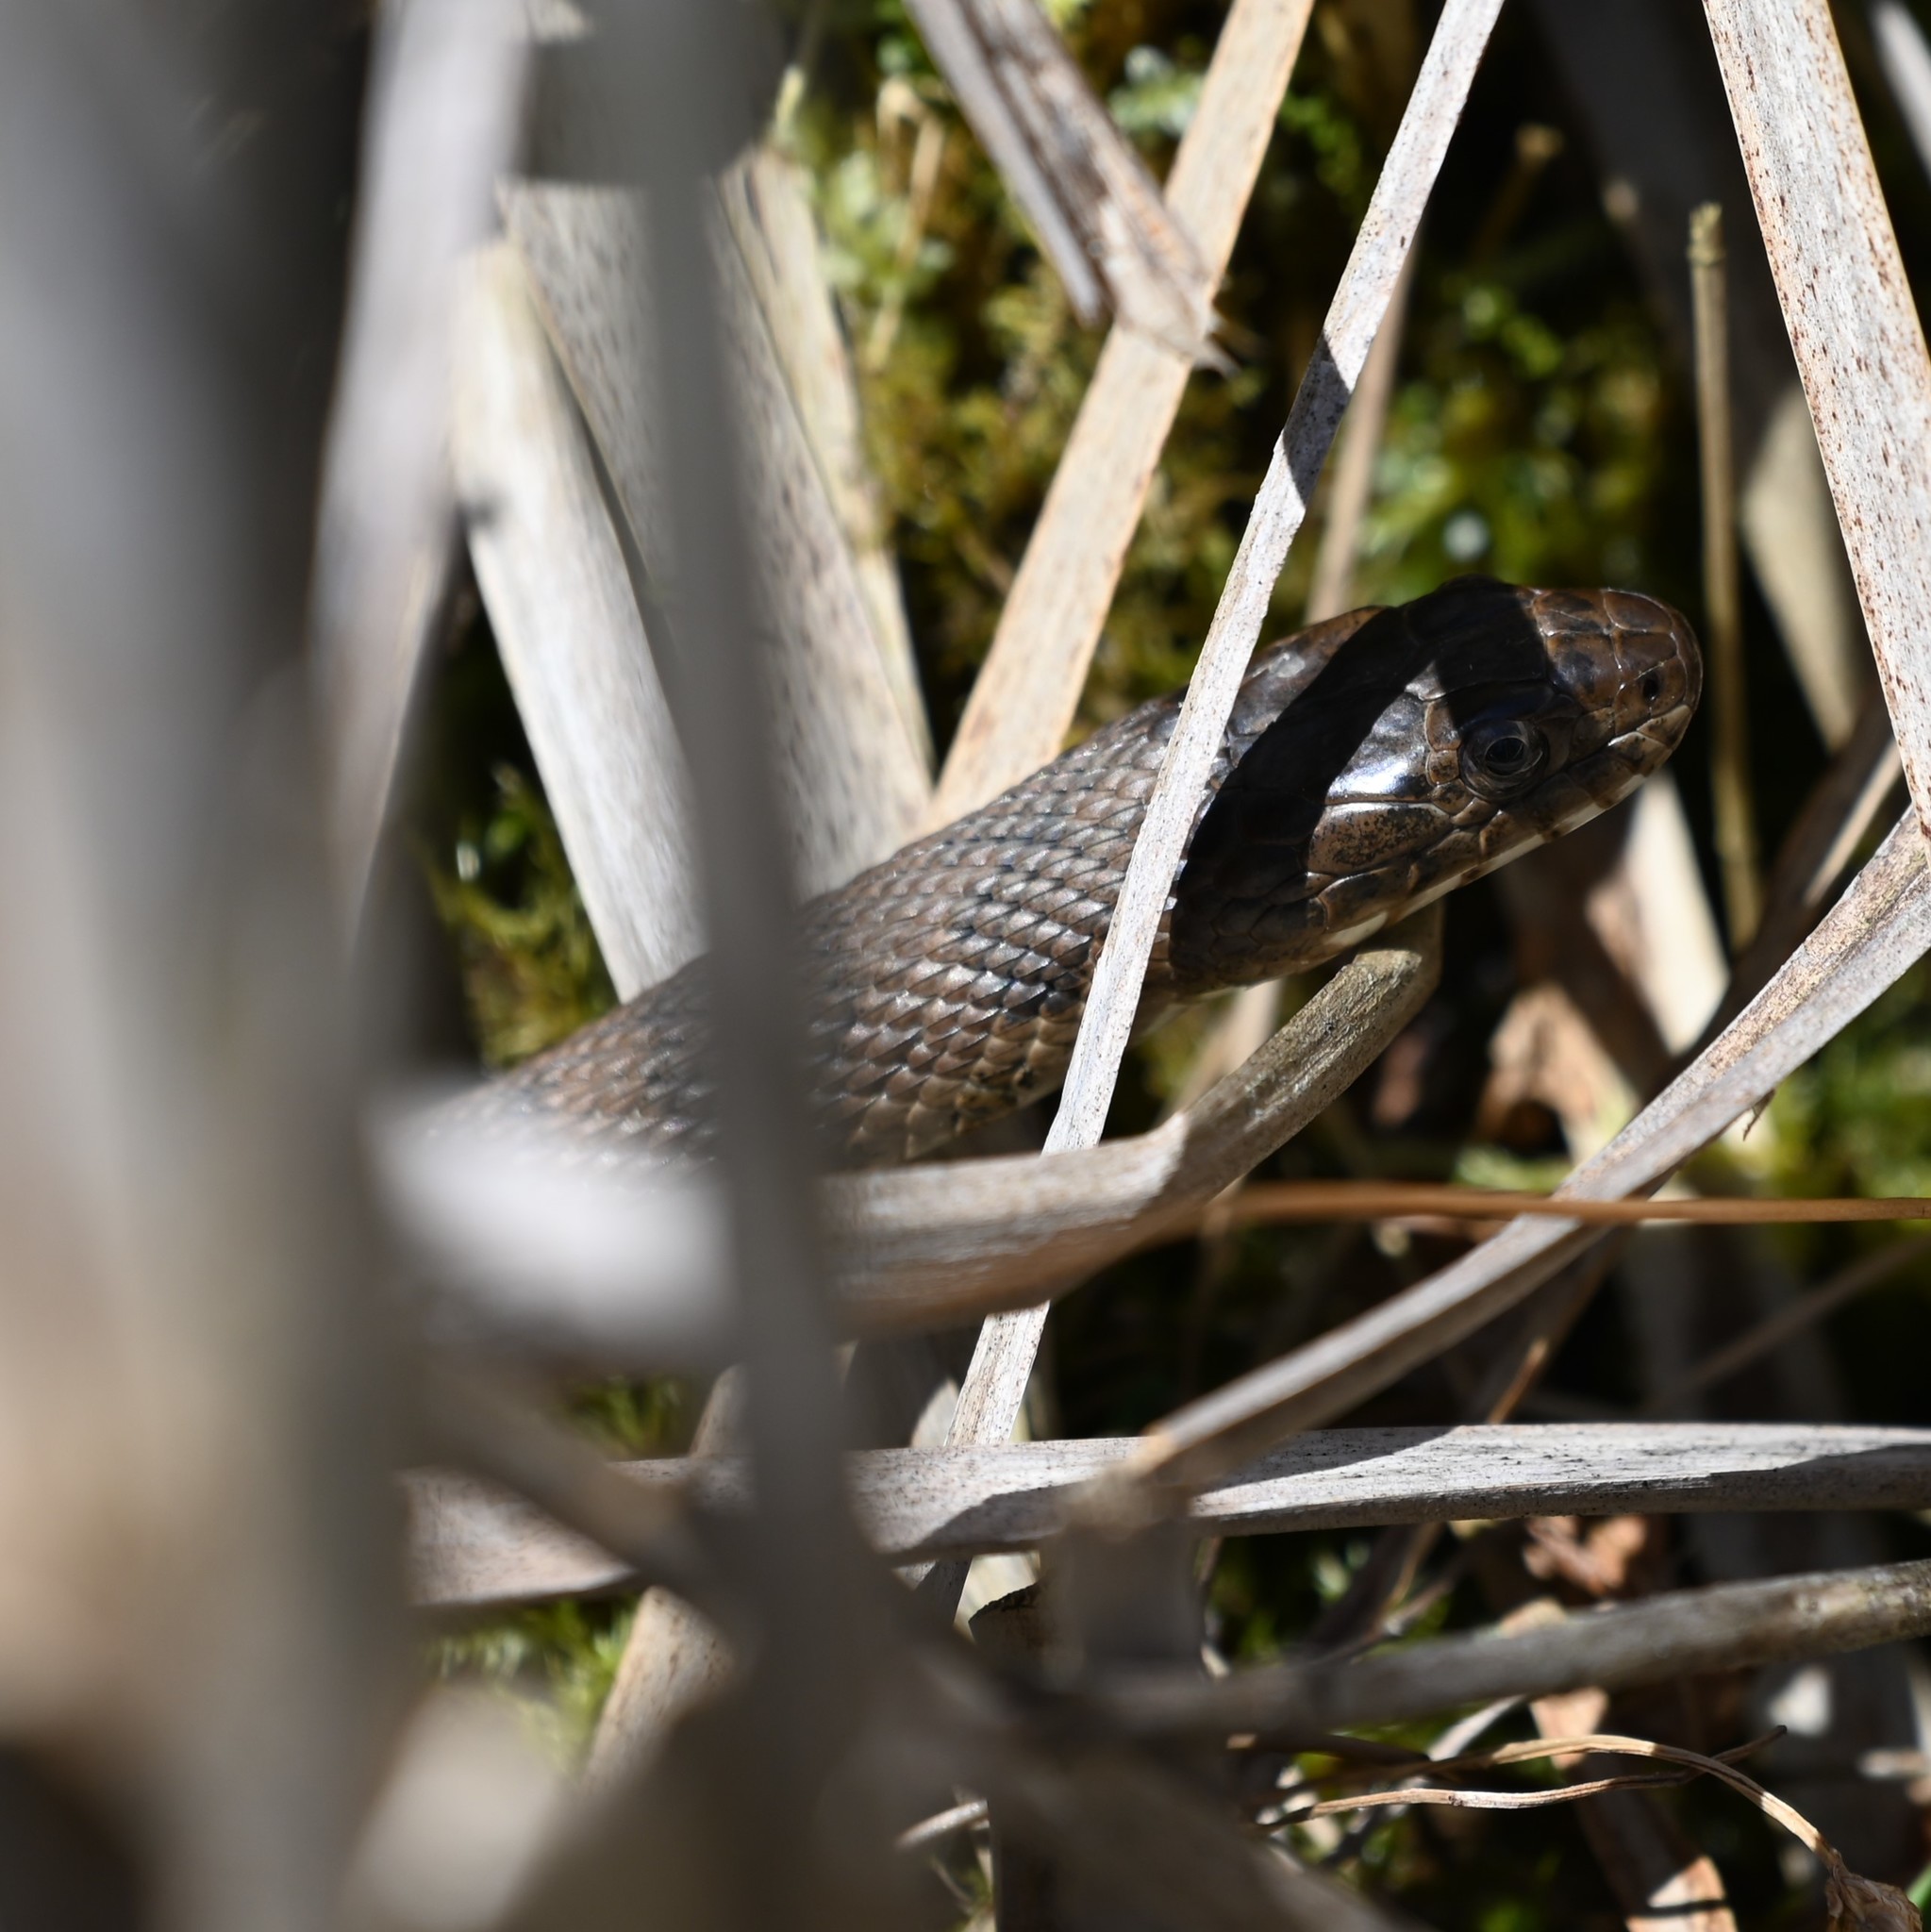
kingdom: Animalia
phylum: Chordata
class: Squamata
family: Colubridae
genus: Nerodia
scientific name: Nerodia sipedon
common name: Northern water snake
